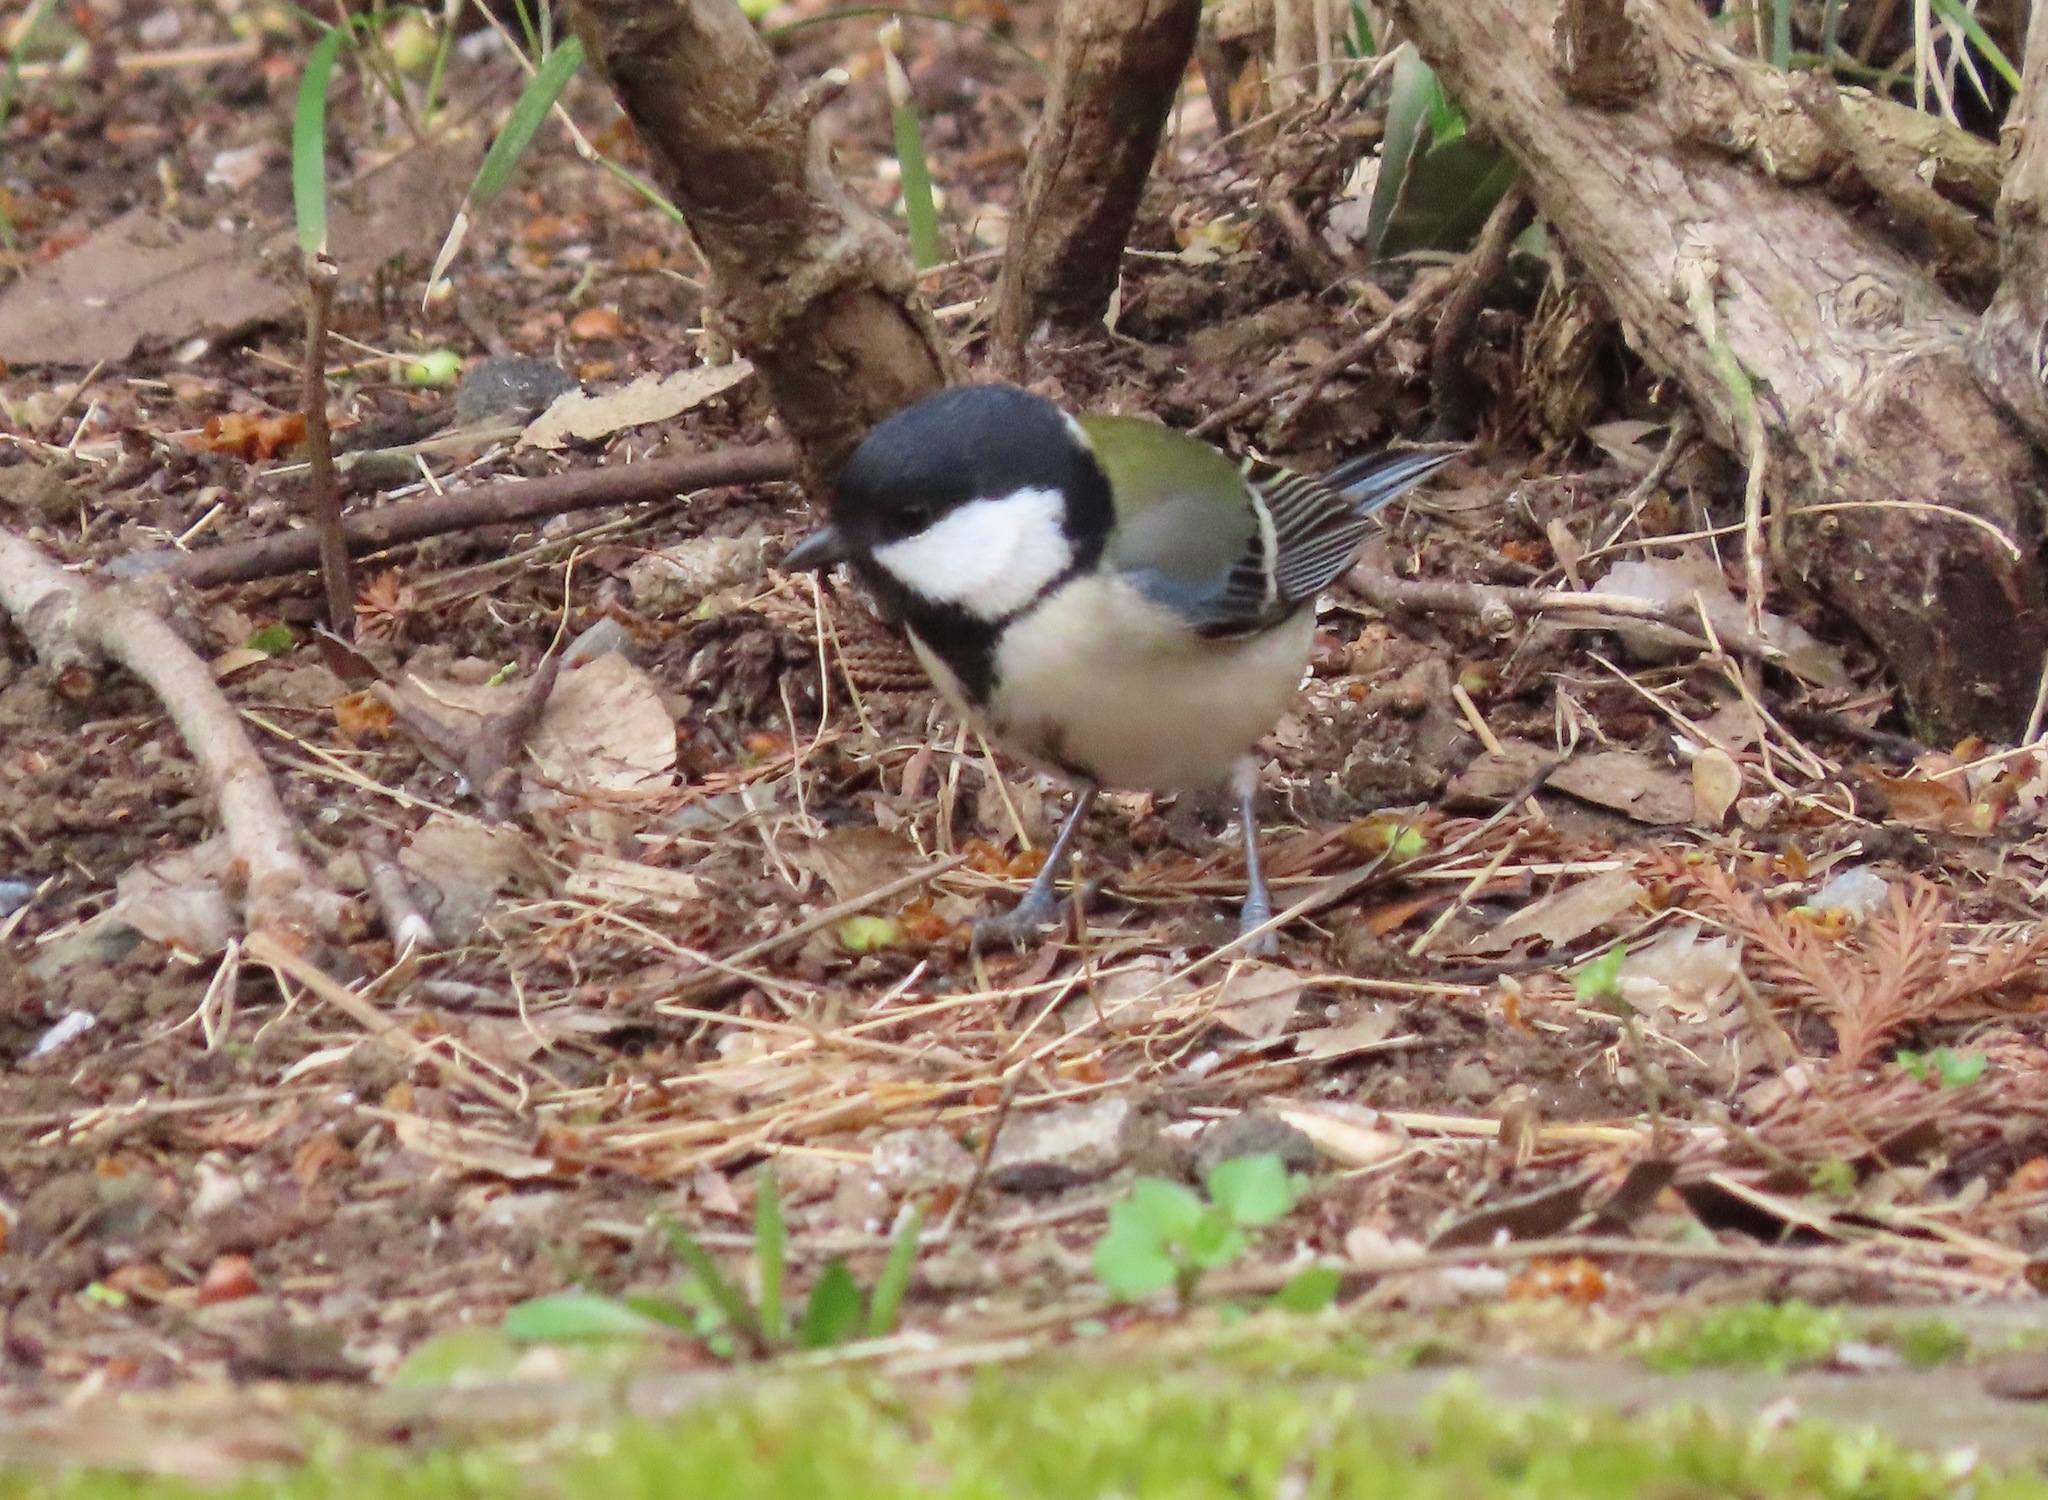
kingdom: Animalia
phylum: Chordata
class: Aves
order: Passeriformes
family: Paridae
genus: Parus
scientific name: Parus minor
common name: Japanese tit
